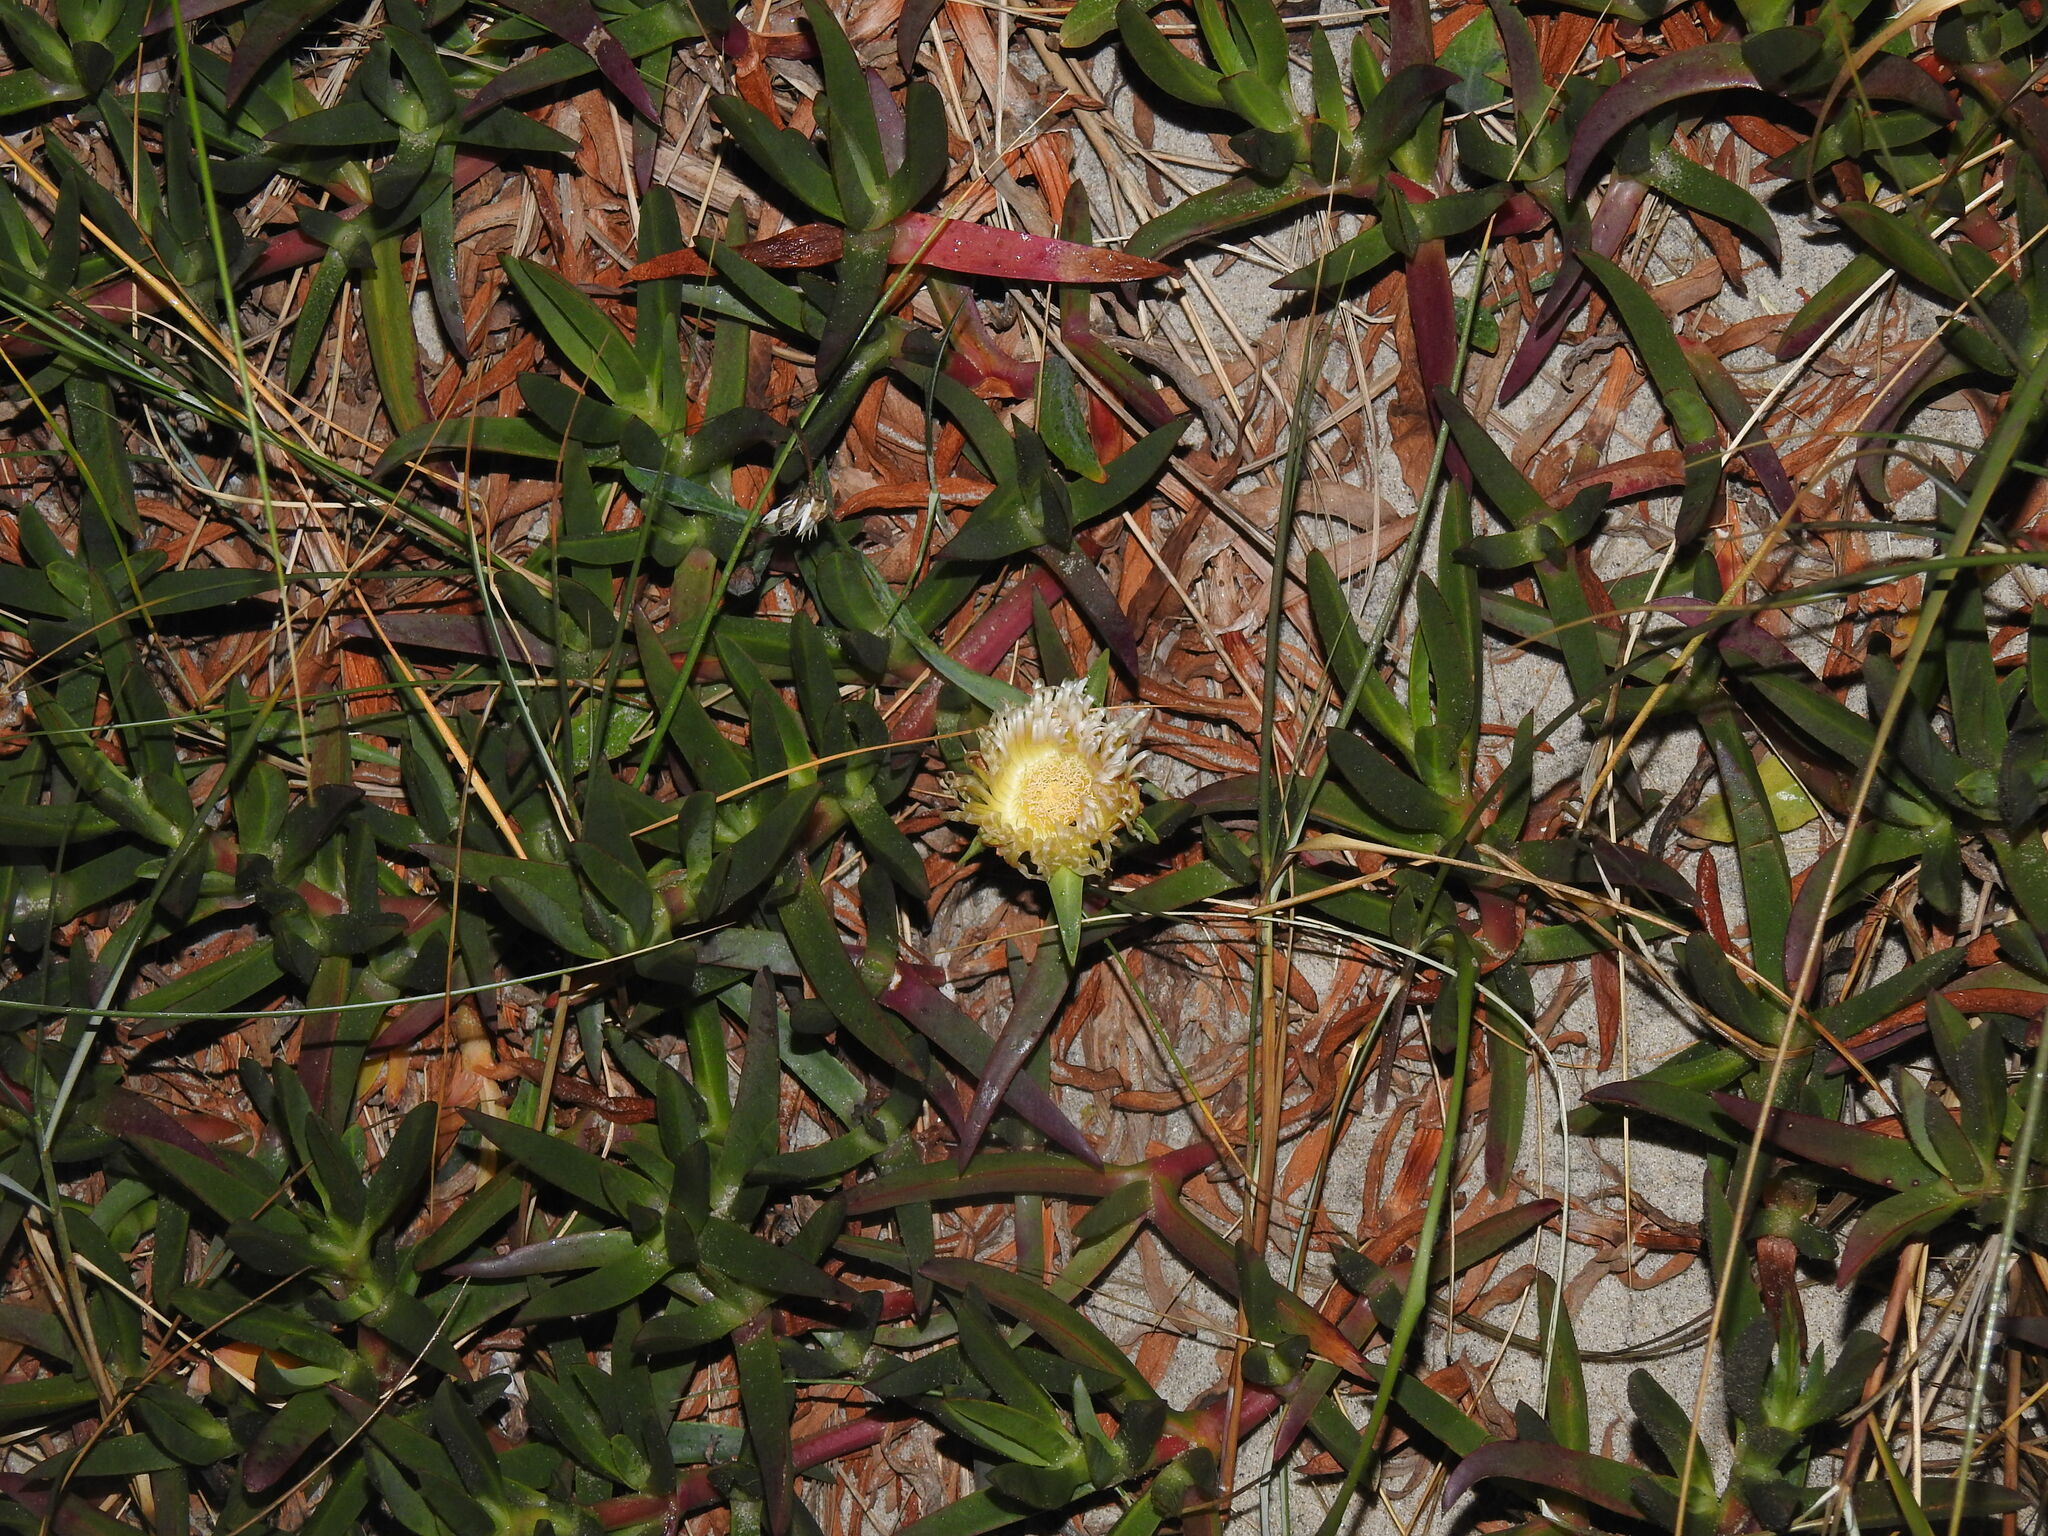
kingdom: Plantae
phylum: Tracheophyta
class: Magnoliopsida
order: Caryophyllales
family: Aizoaceae
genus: Carpobrotus
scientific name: Carpobrotus edulis
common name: Hottentot-fig
